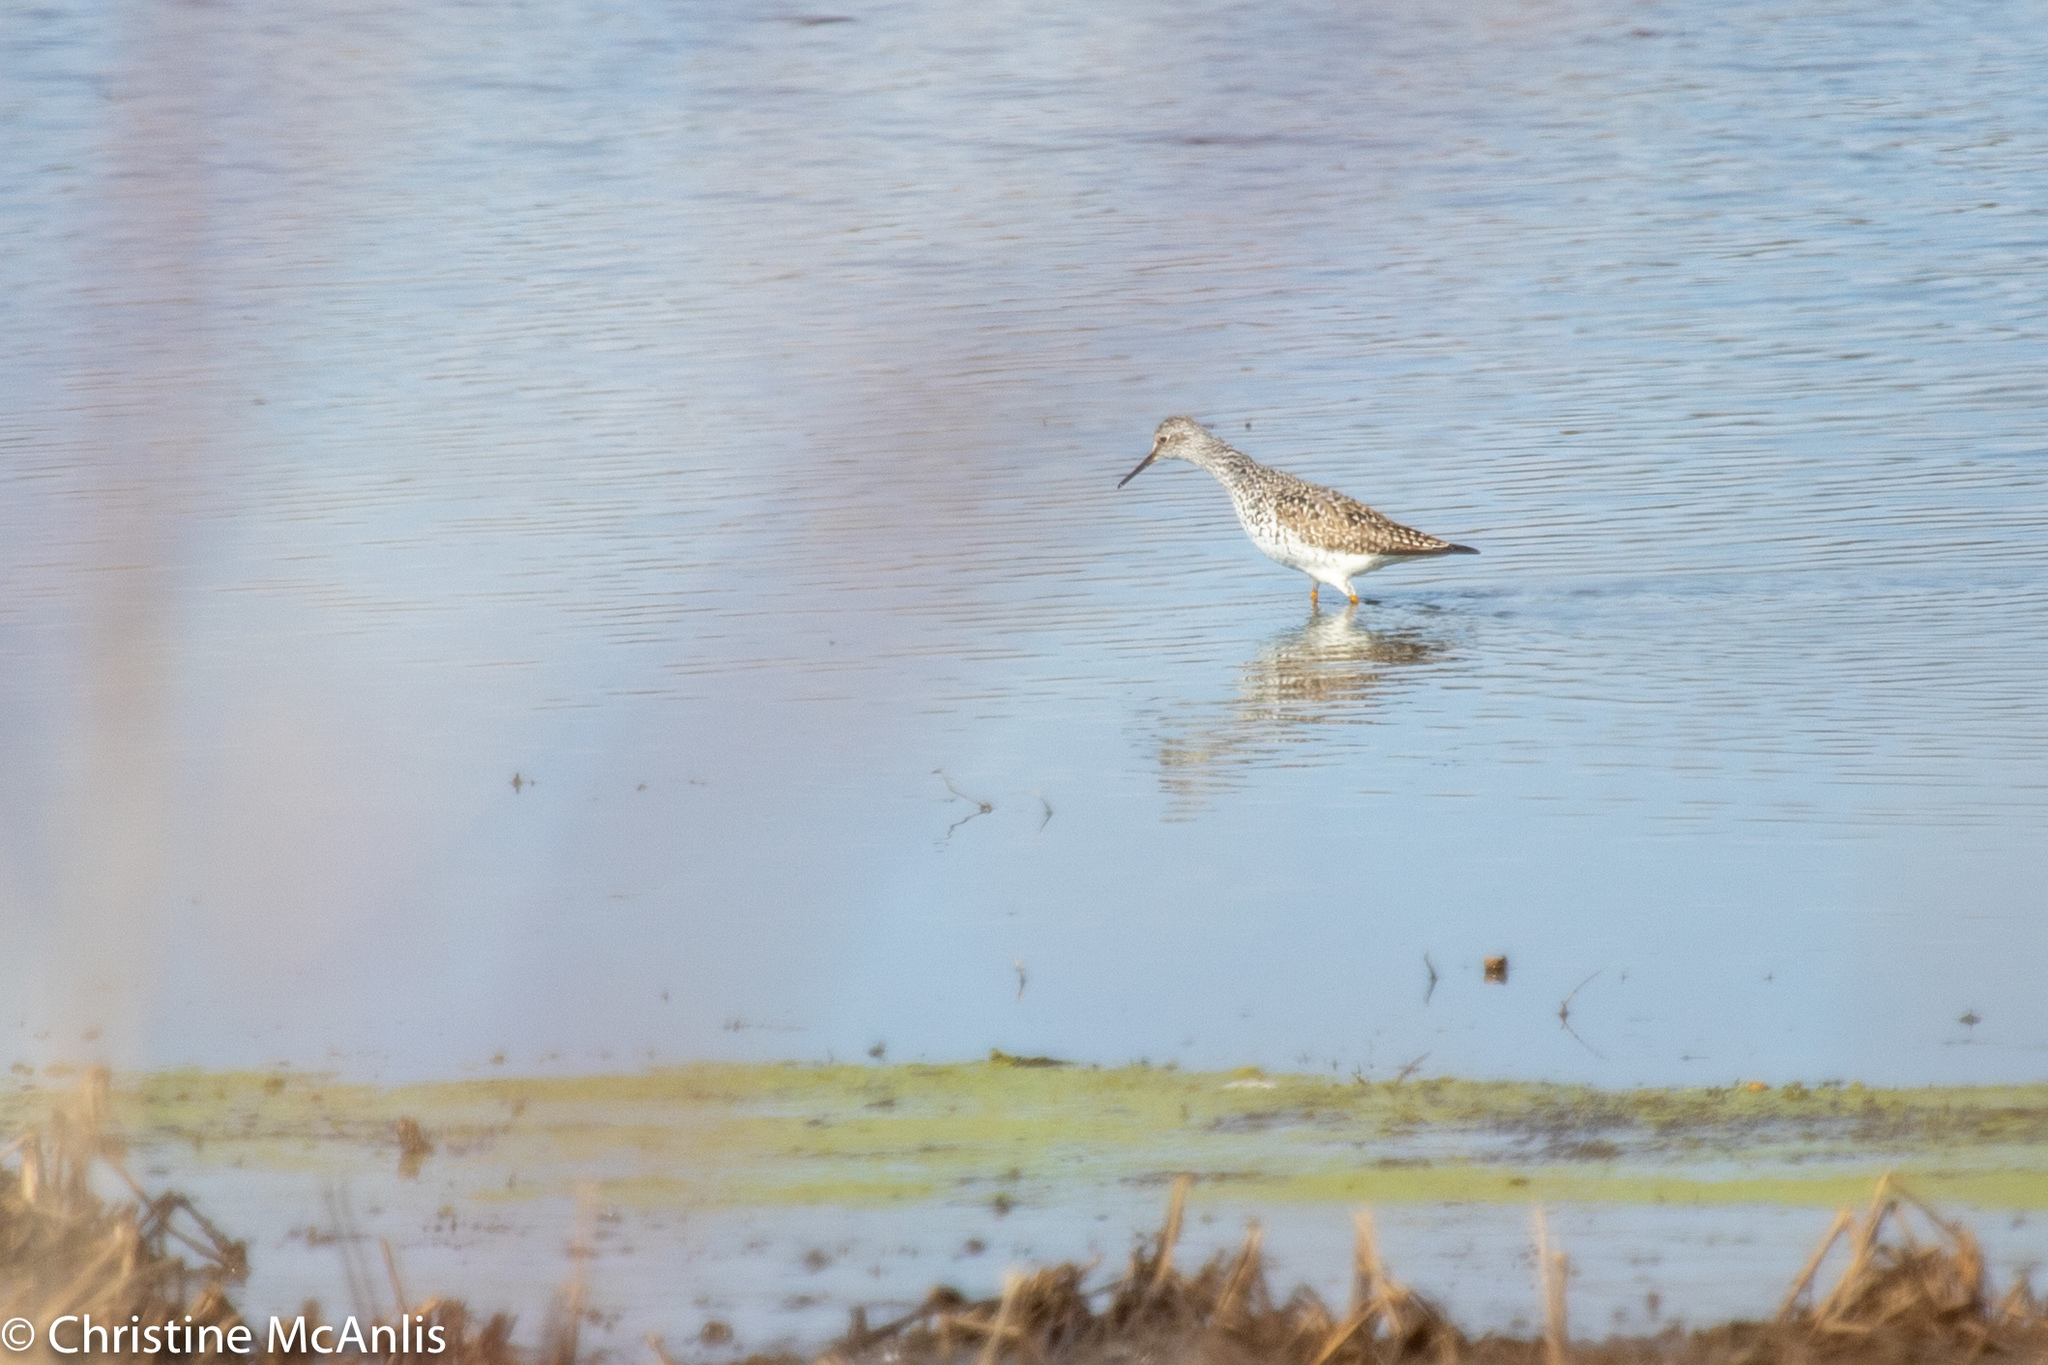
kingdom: Animalia
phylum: Chordata
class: Aves
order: Charadriiformes
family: Scolopacidae
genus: Tringa
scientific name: Tringa flavipes
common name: Lesser yellowlegs
